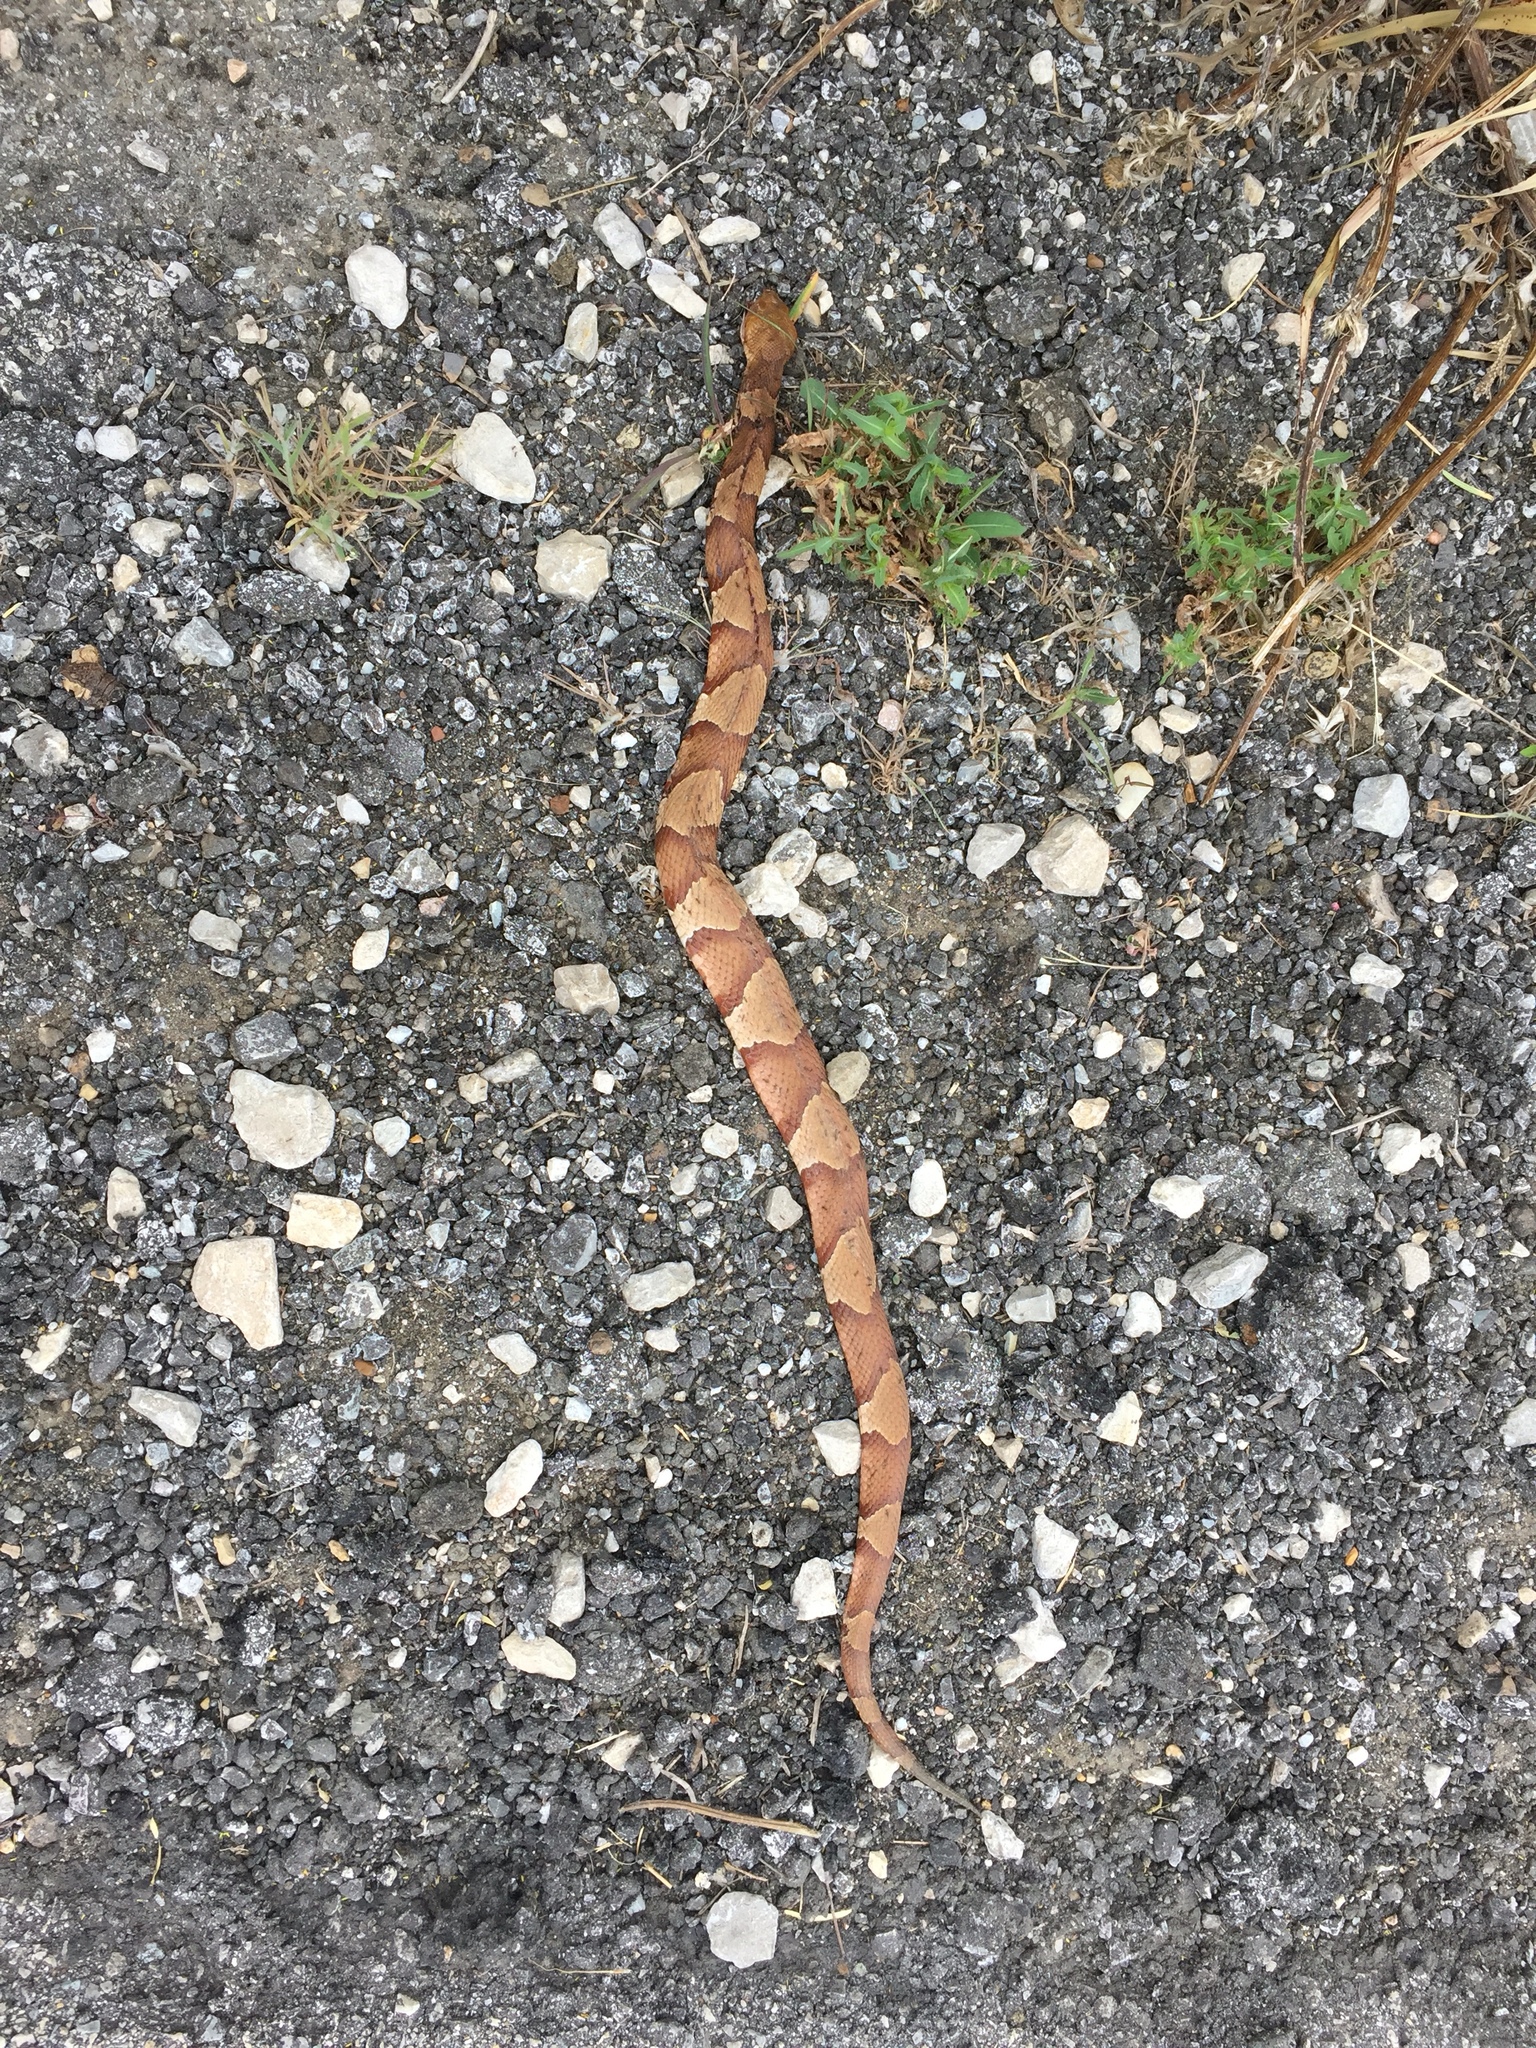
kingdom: Animalia
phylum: Chordata
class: Squamata
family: Viperidae
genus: Agkistrodon
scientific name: Agkistrodon laticinctus
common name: Broad-banded copperhead
